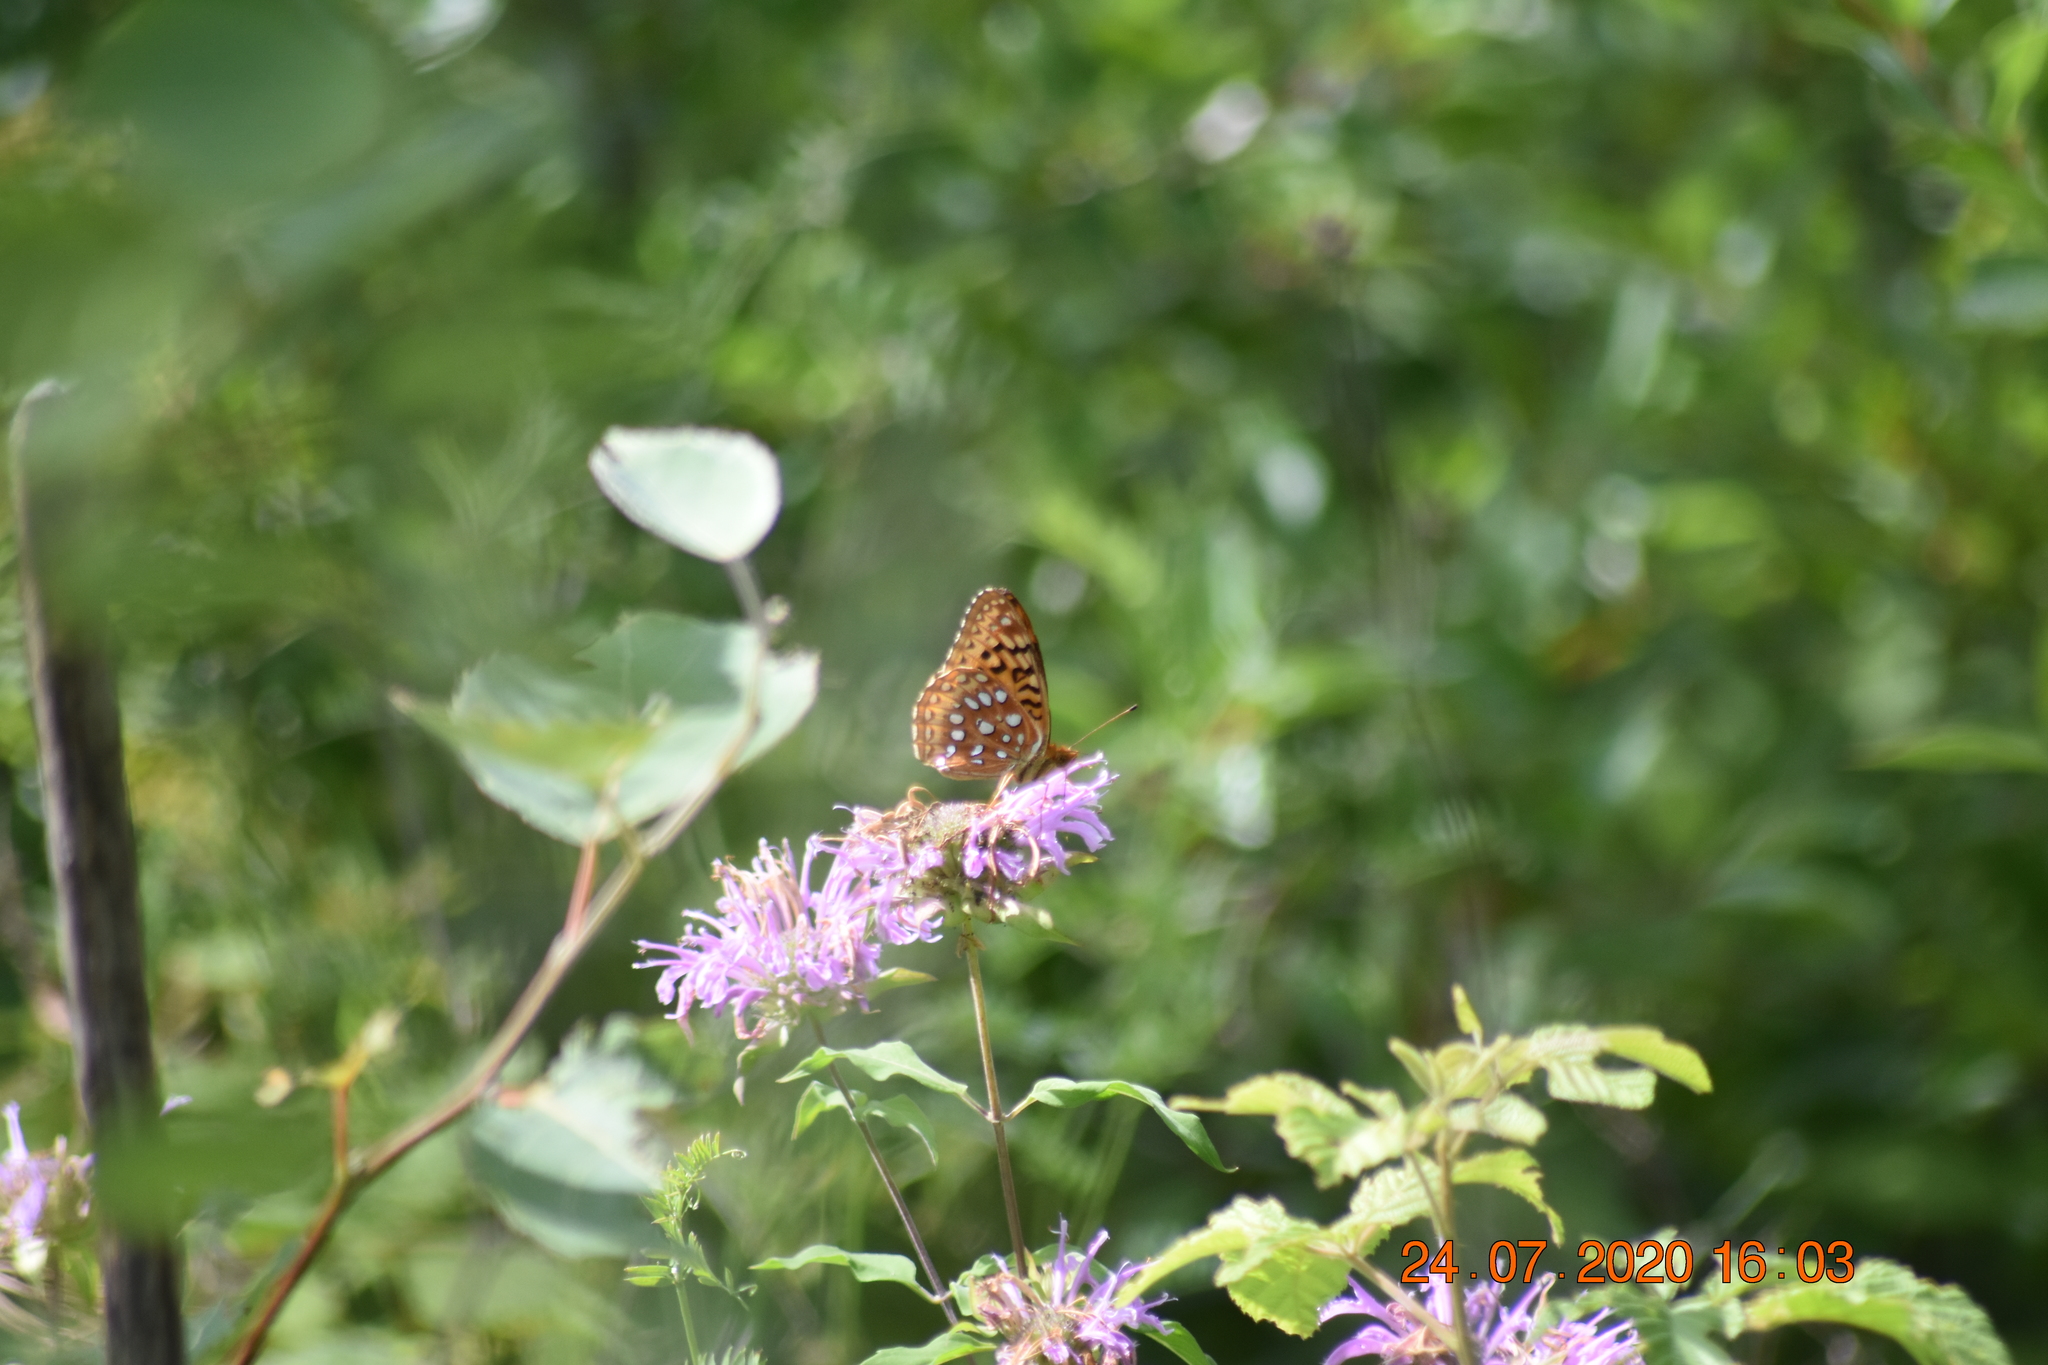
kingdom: Animalia
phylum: Arthropoda
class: Insecta
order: Lepidoptera
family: Nymphalidae
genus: Speyeria
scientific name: Speyeria aphrodite
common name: Aphrodite friitllary
